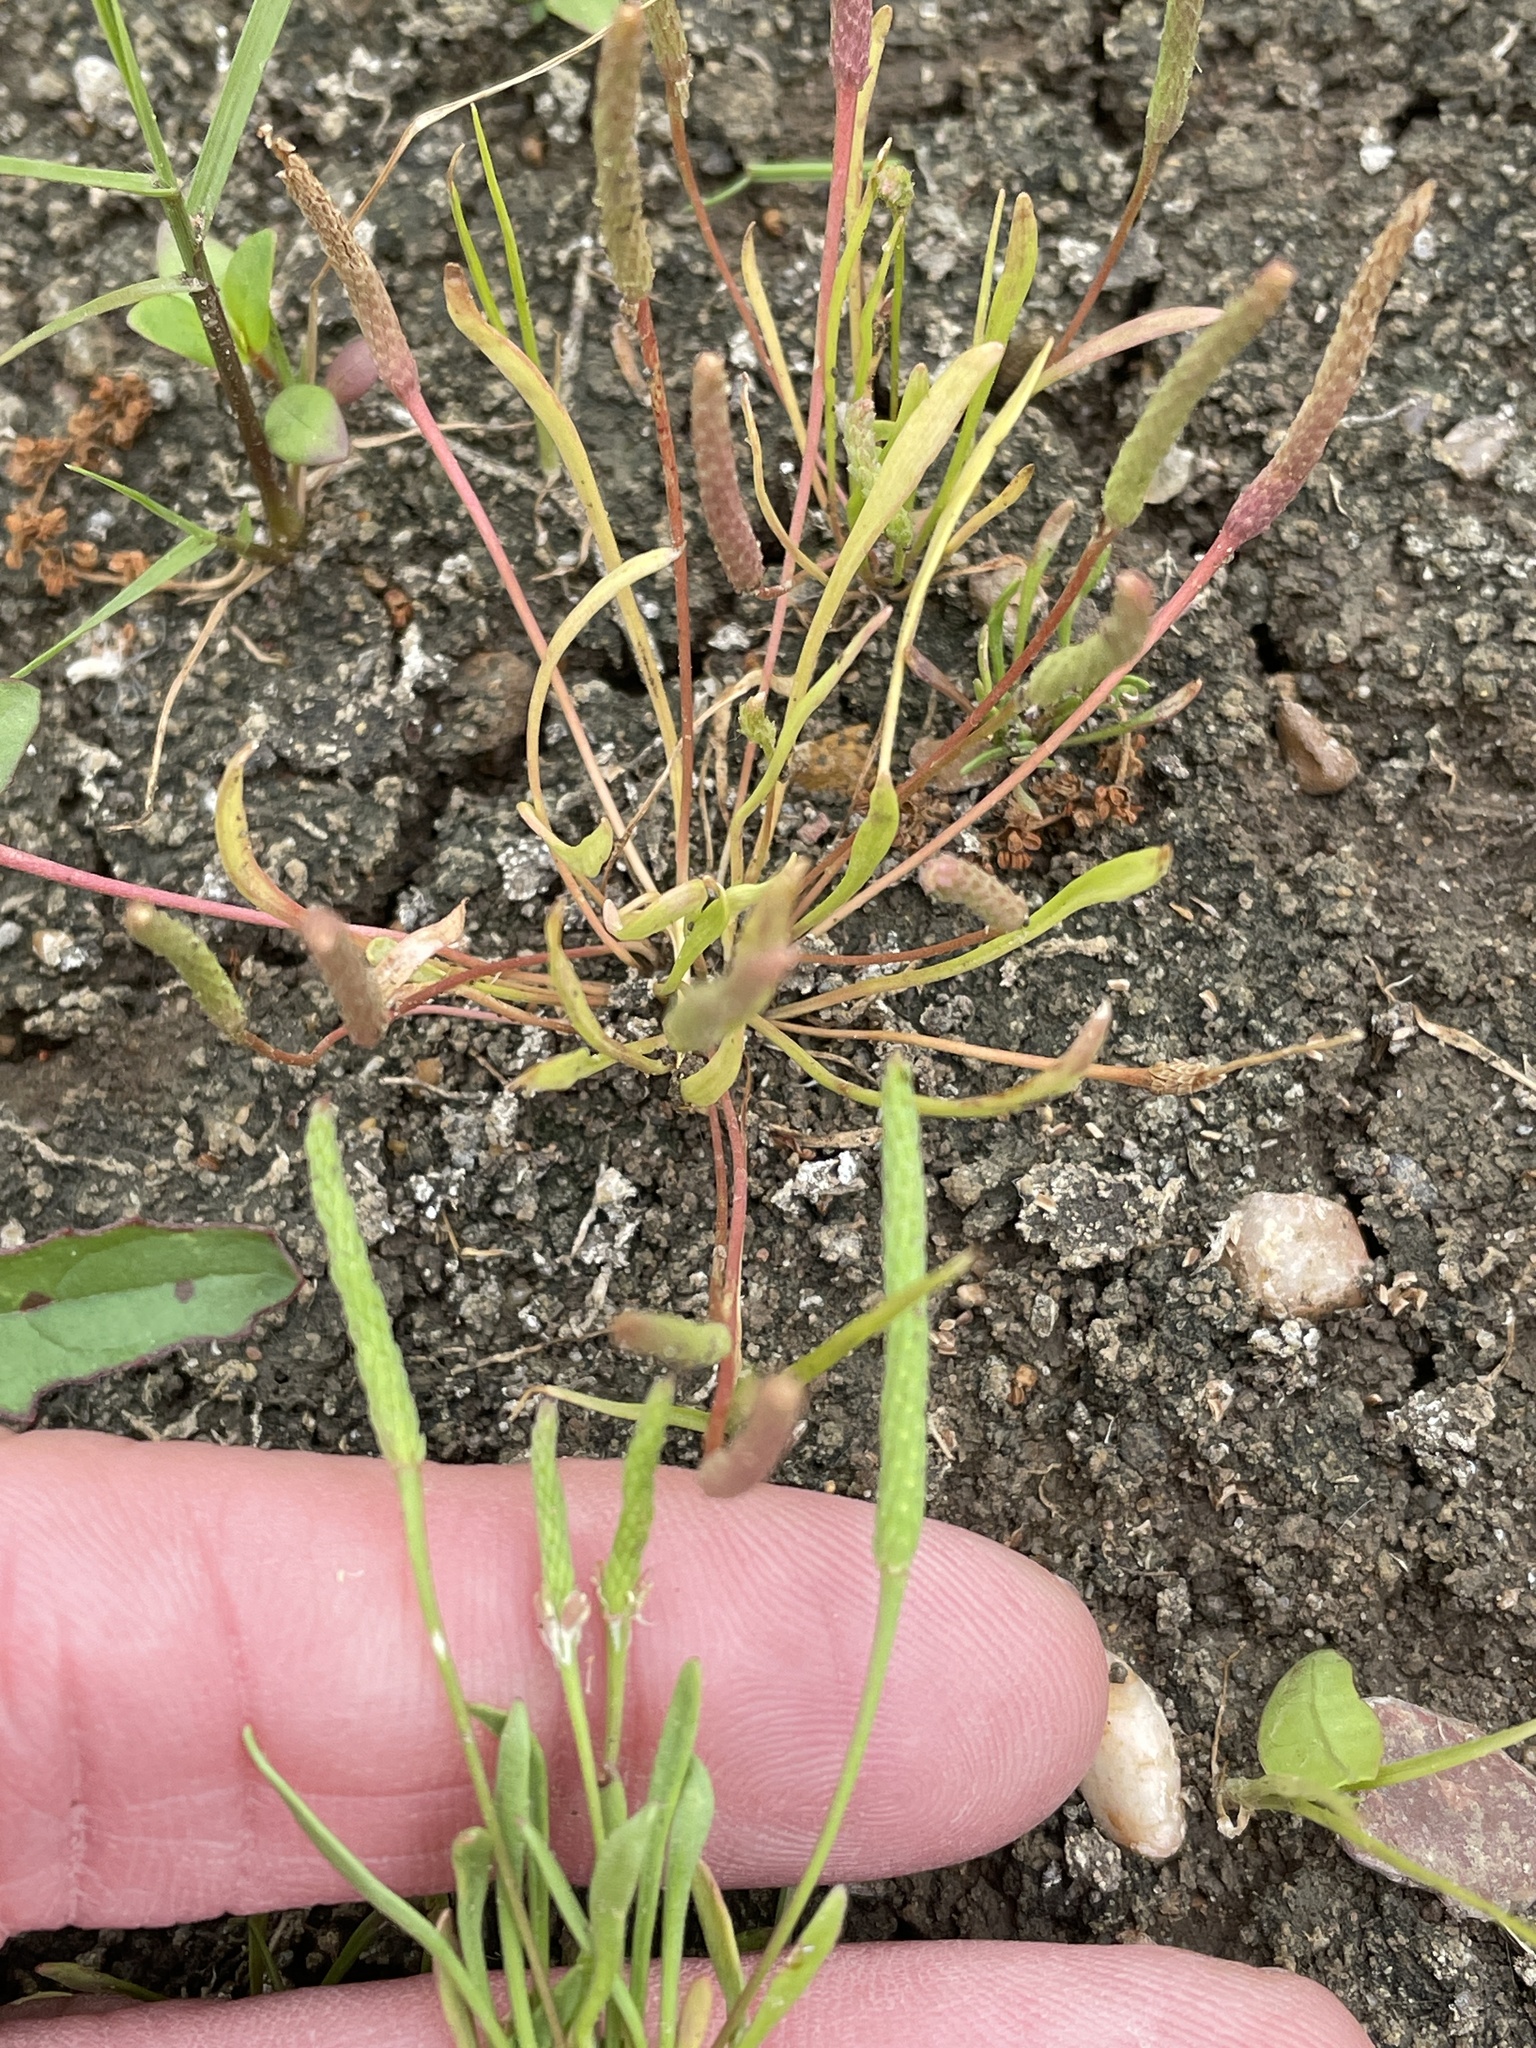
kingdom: Plantae
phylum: Tracheophyta
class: Magnoliopsida
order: Ranunculales
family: Ranunculaceae
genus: Myosurus
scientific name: Myosurus minimus
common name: Mousetail
